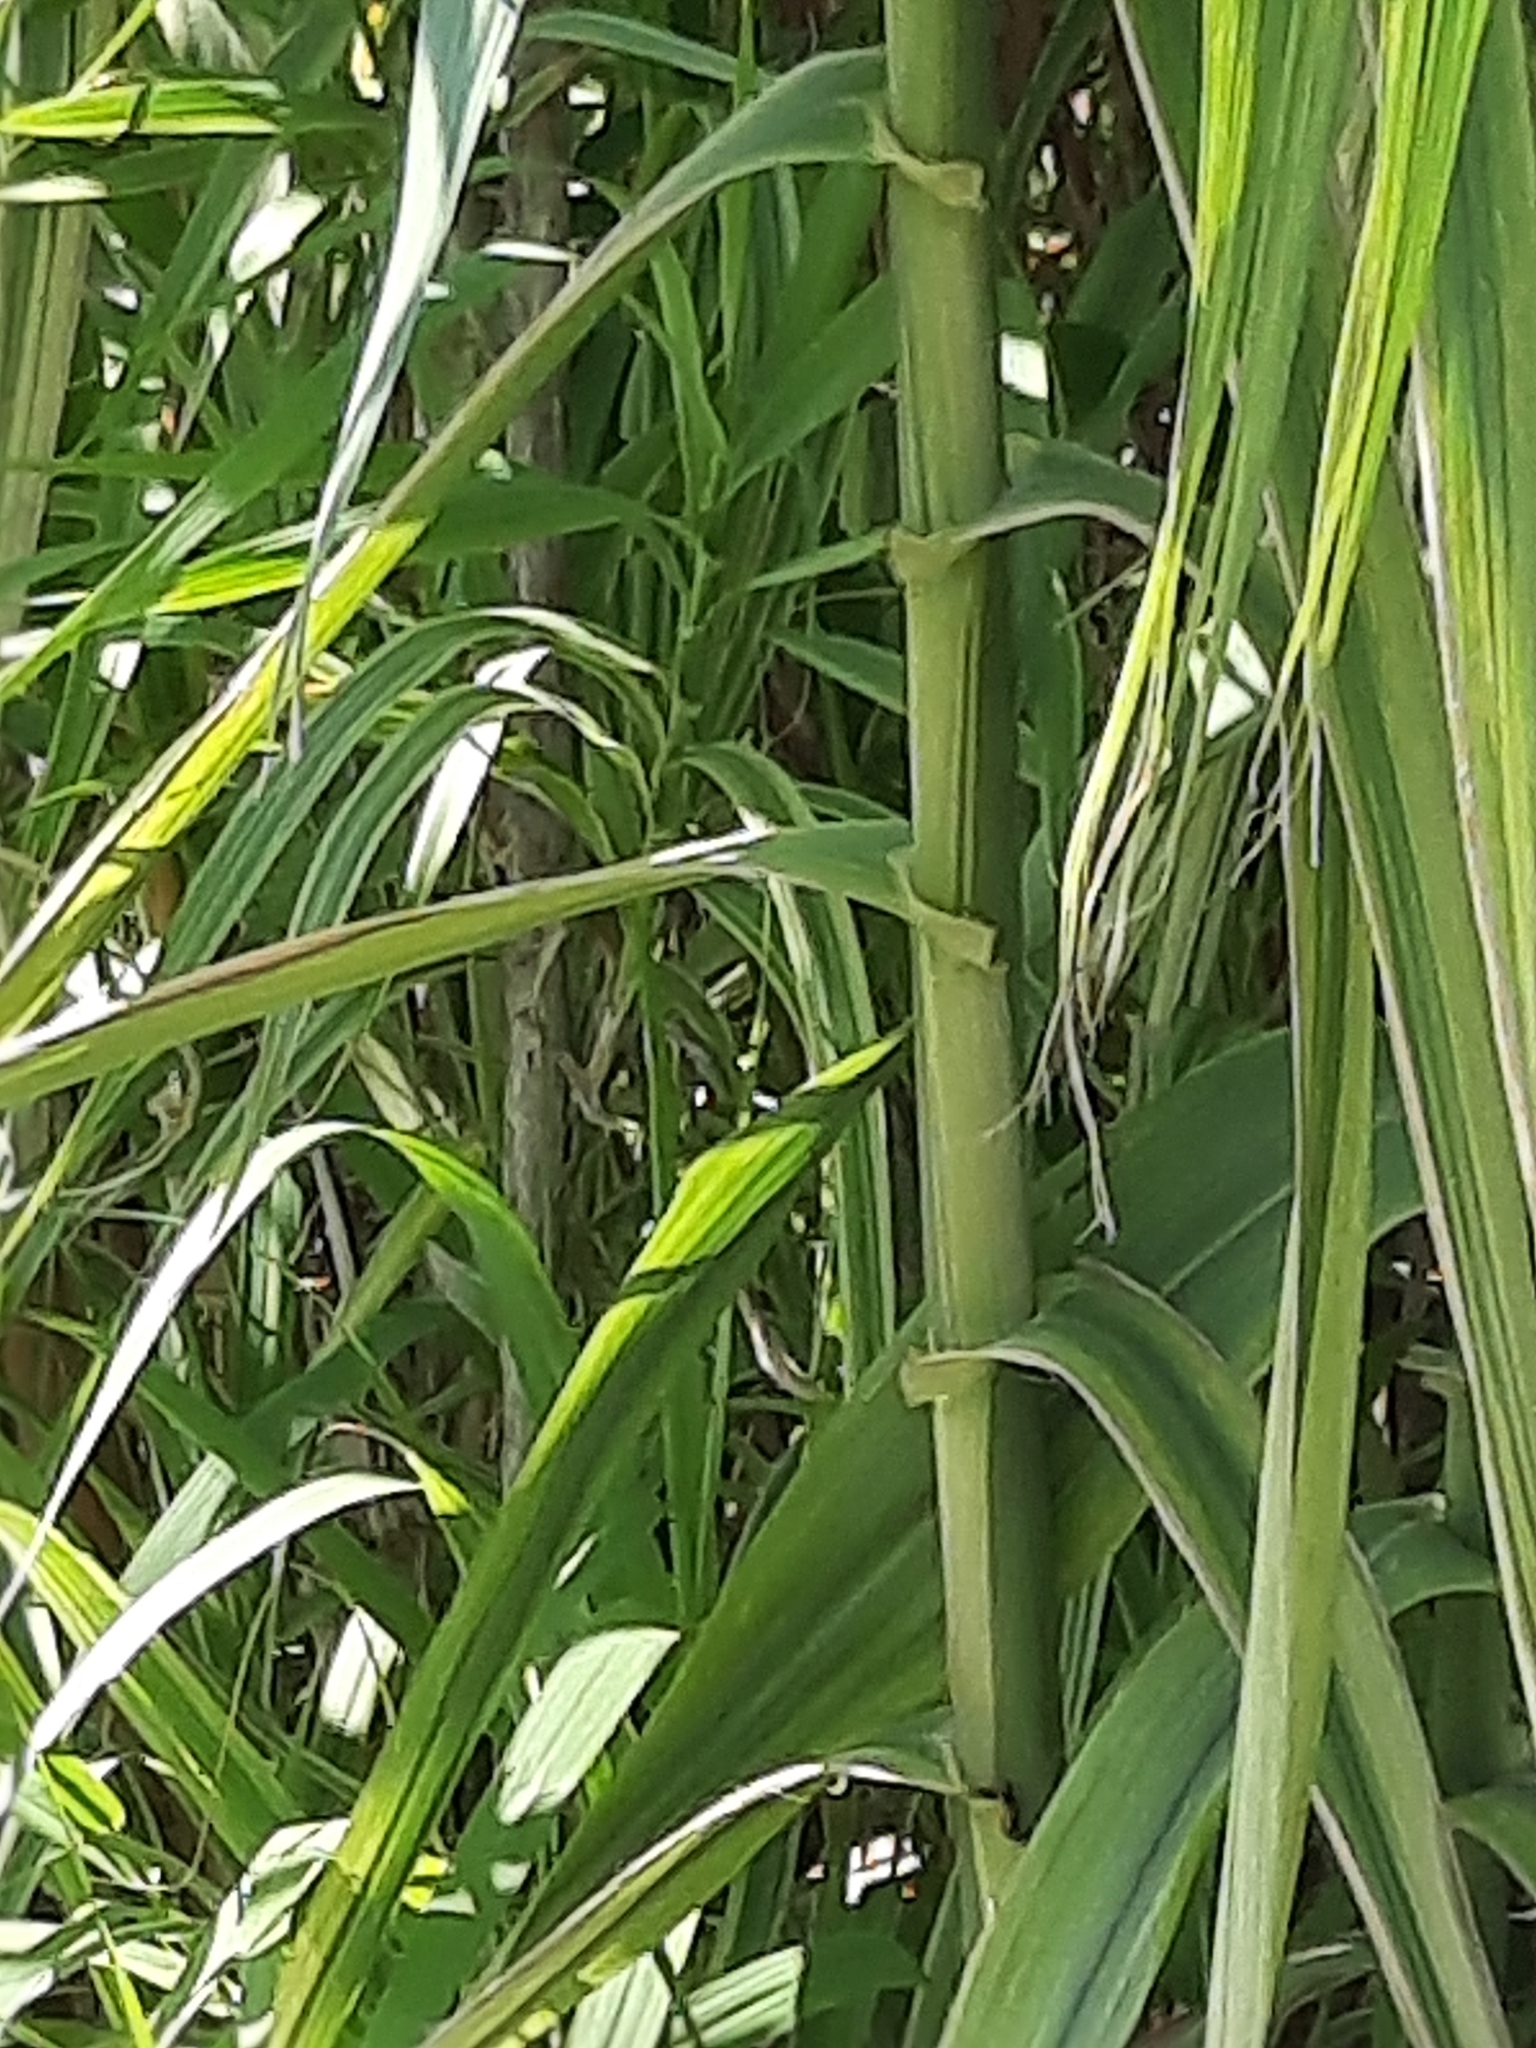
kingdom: Plantae
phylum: Tracheophyta
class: Liliopsida
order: Poales
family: Poaceae
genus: Arundo
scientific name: Arundo donax
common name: Giant reed
